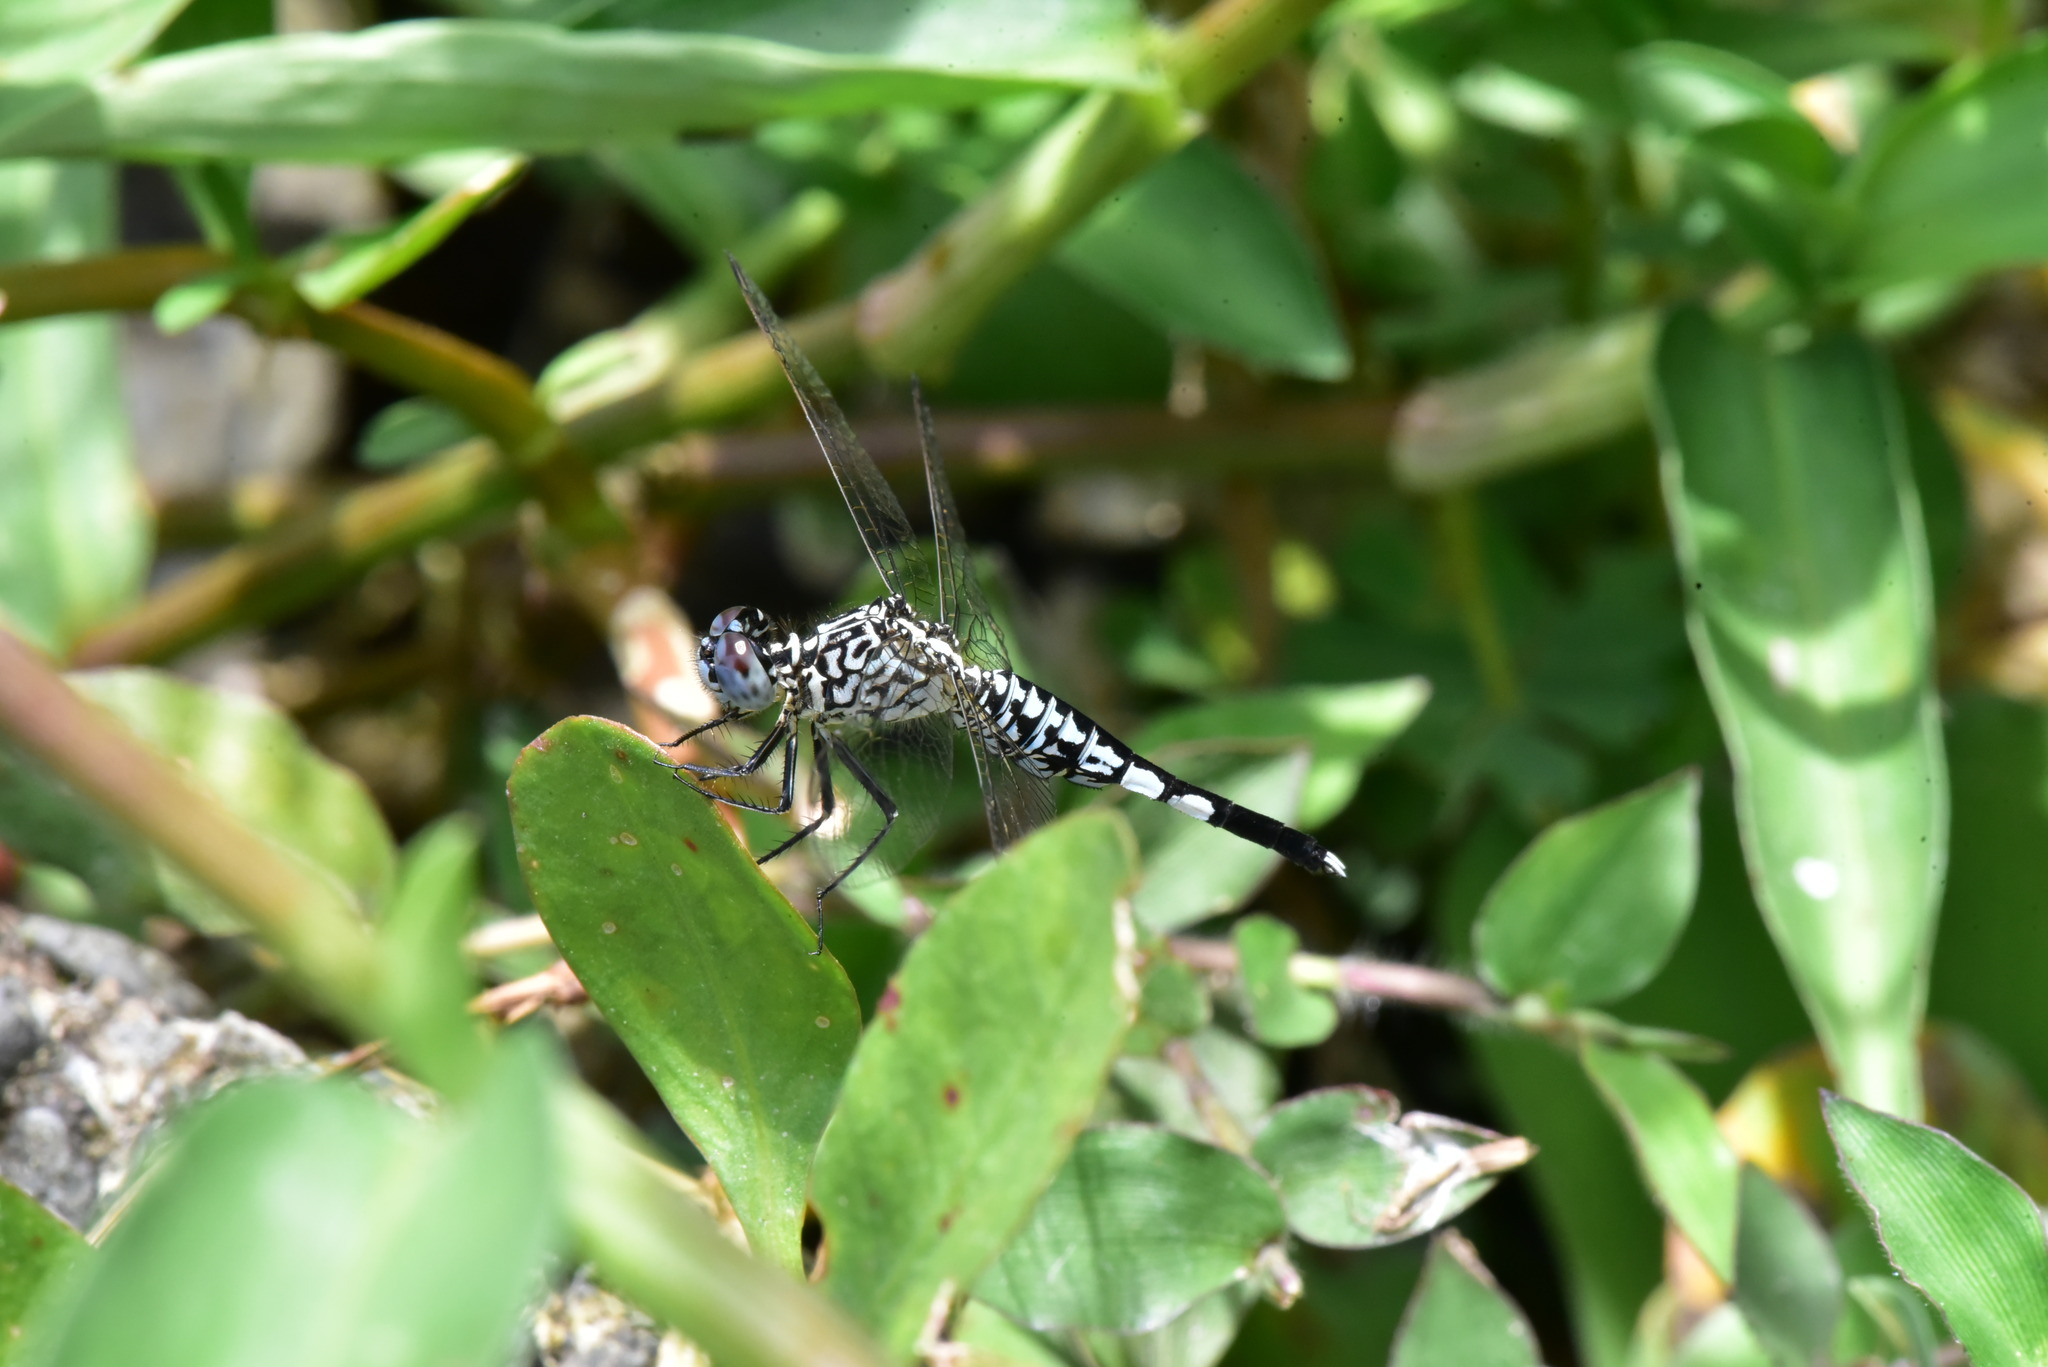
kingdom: Animalia
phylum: Arthropoda
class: Insecta
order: Odonata
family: Libellulidae
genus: Acisoma
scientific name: Acisoma panorpoides
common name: Asian pintail
